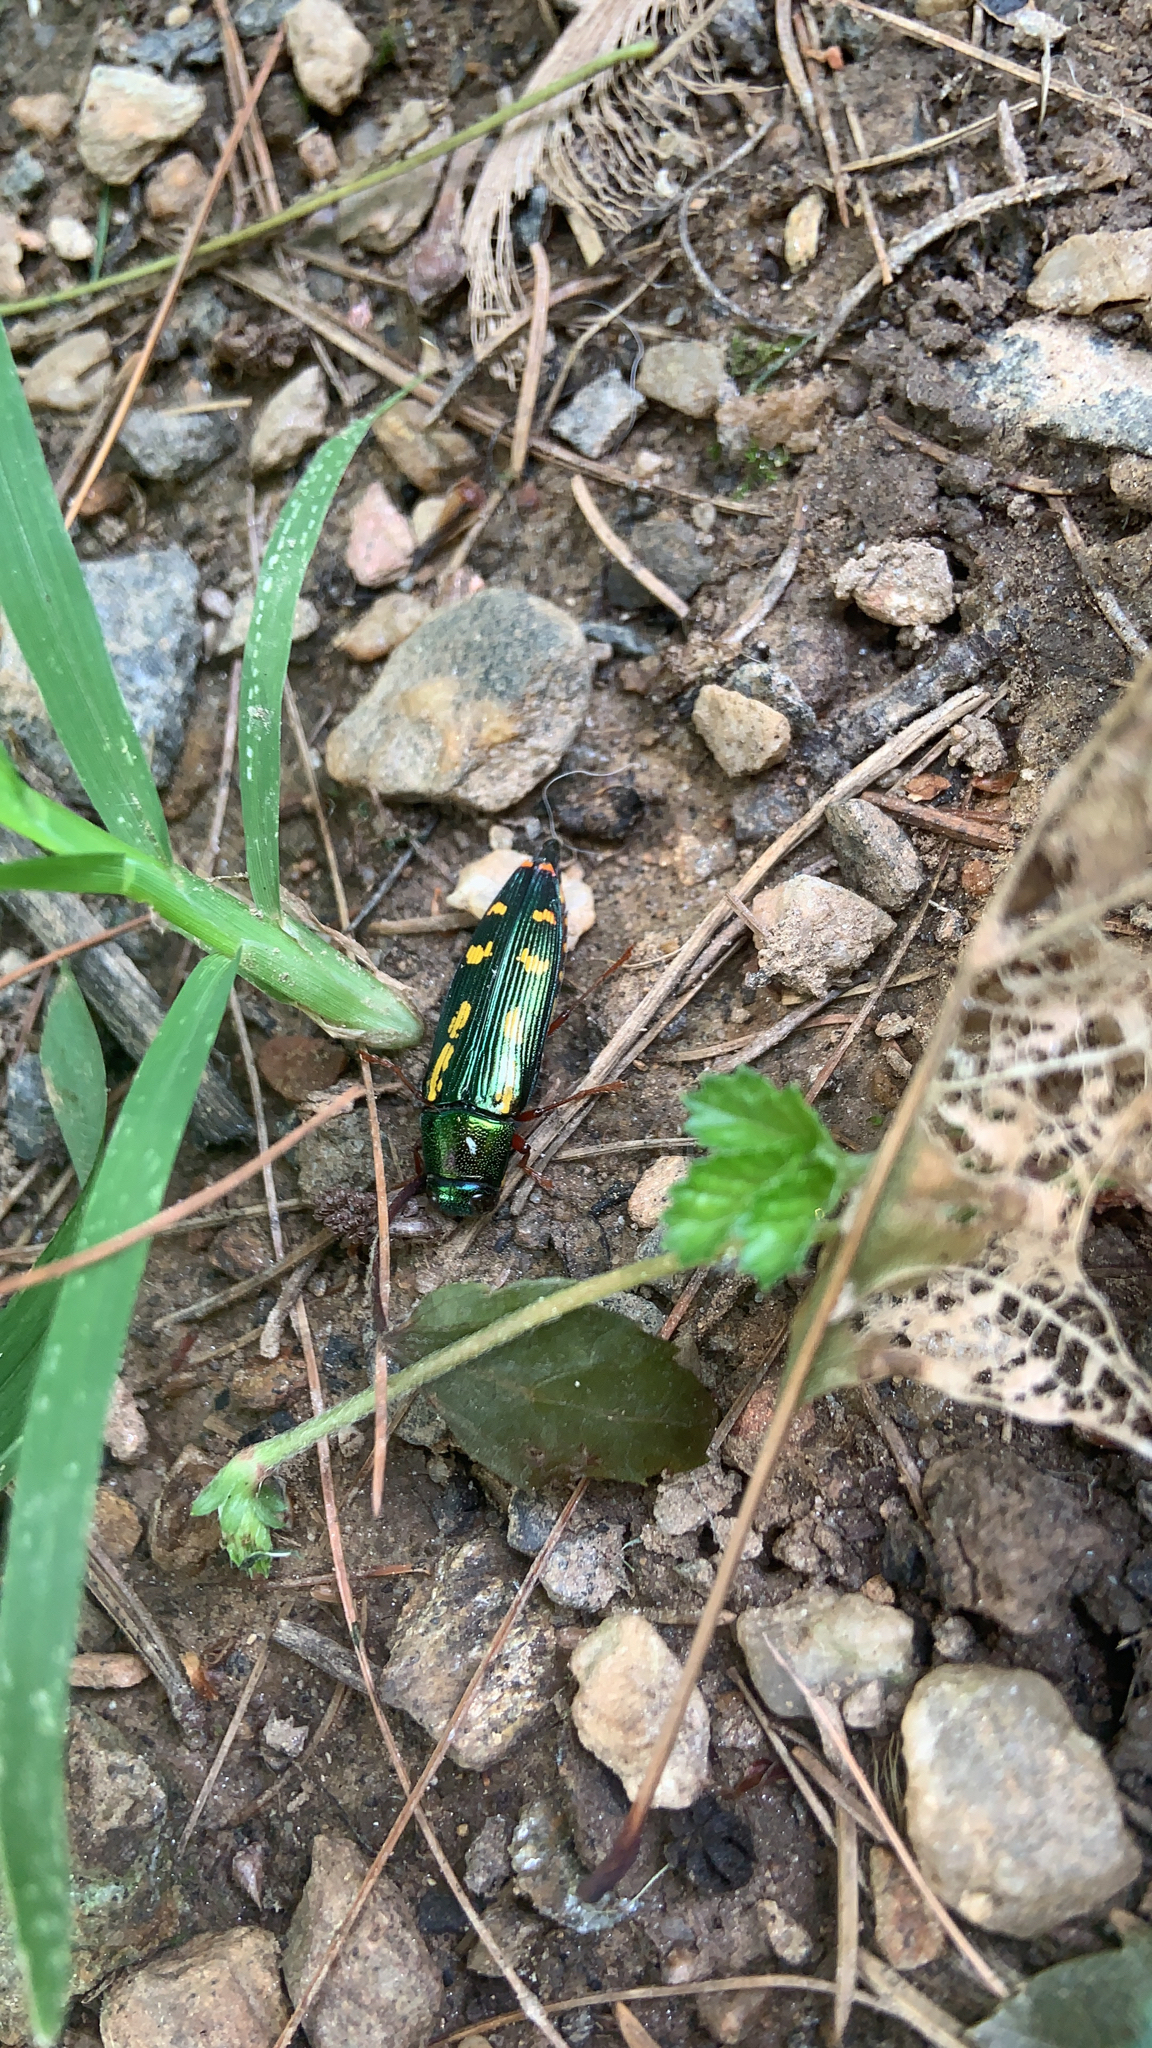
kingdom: Animalia
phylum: Arthropoda
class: Insecta
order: Coleoptera
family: Buprestidae
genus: Buprestis
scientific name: Buprestis rufipes
